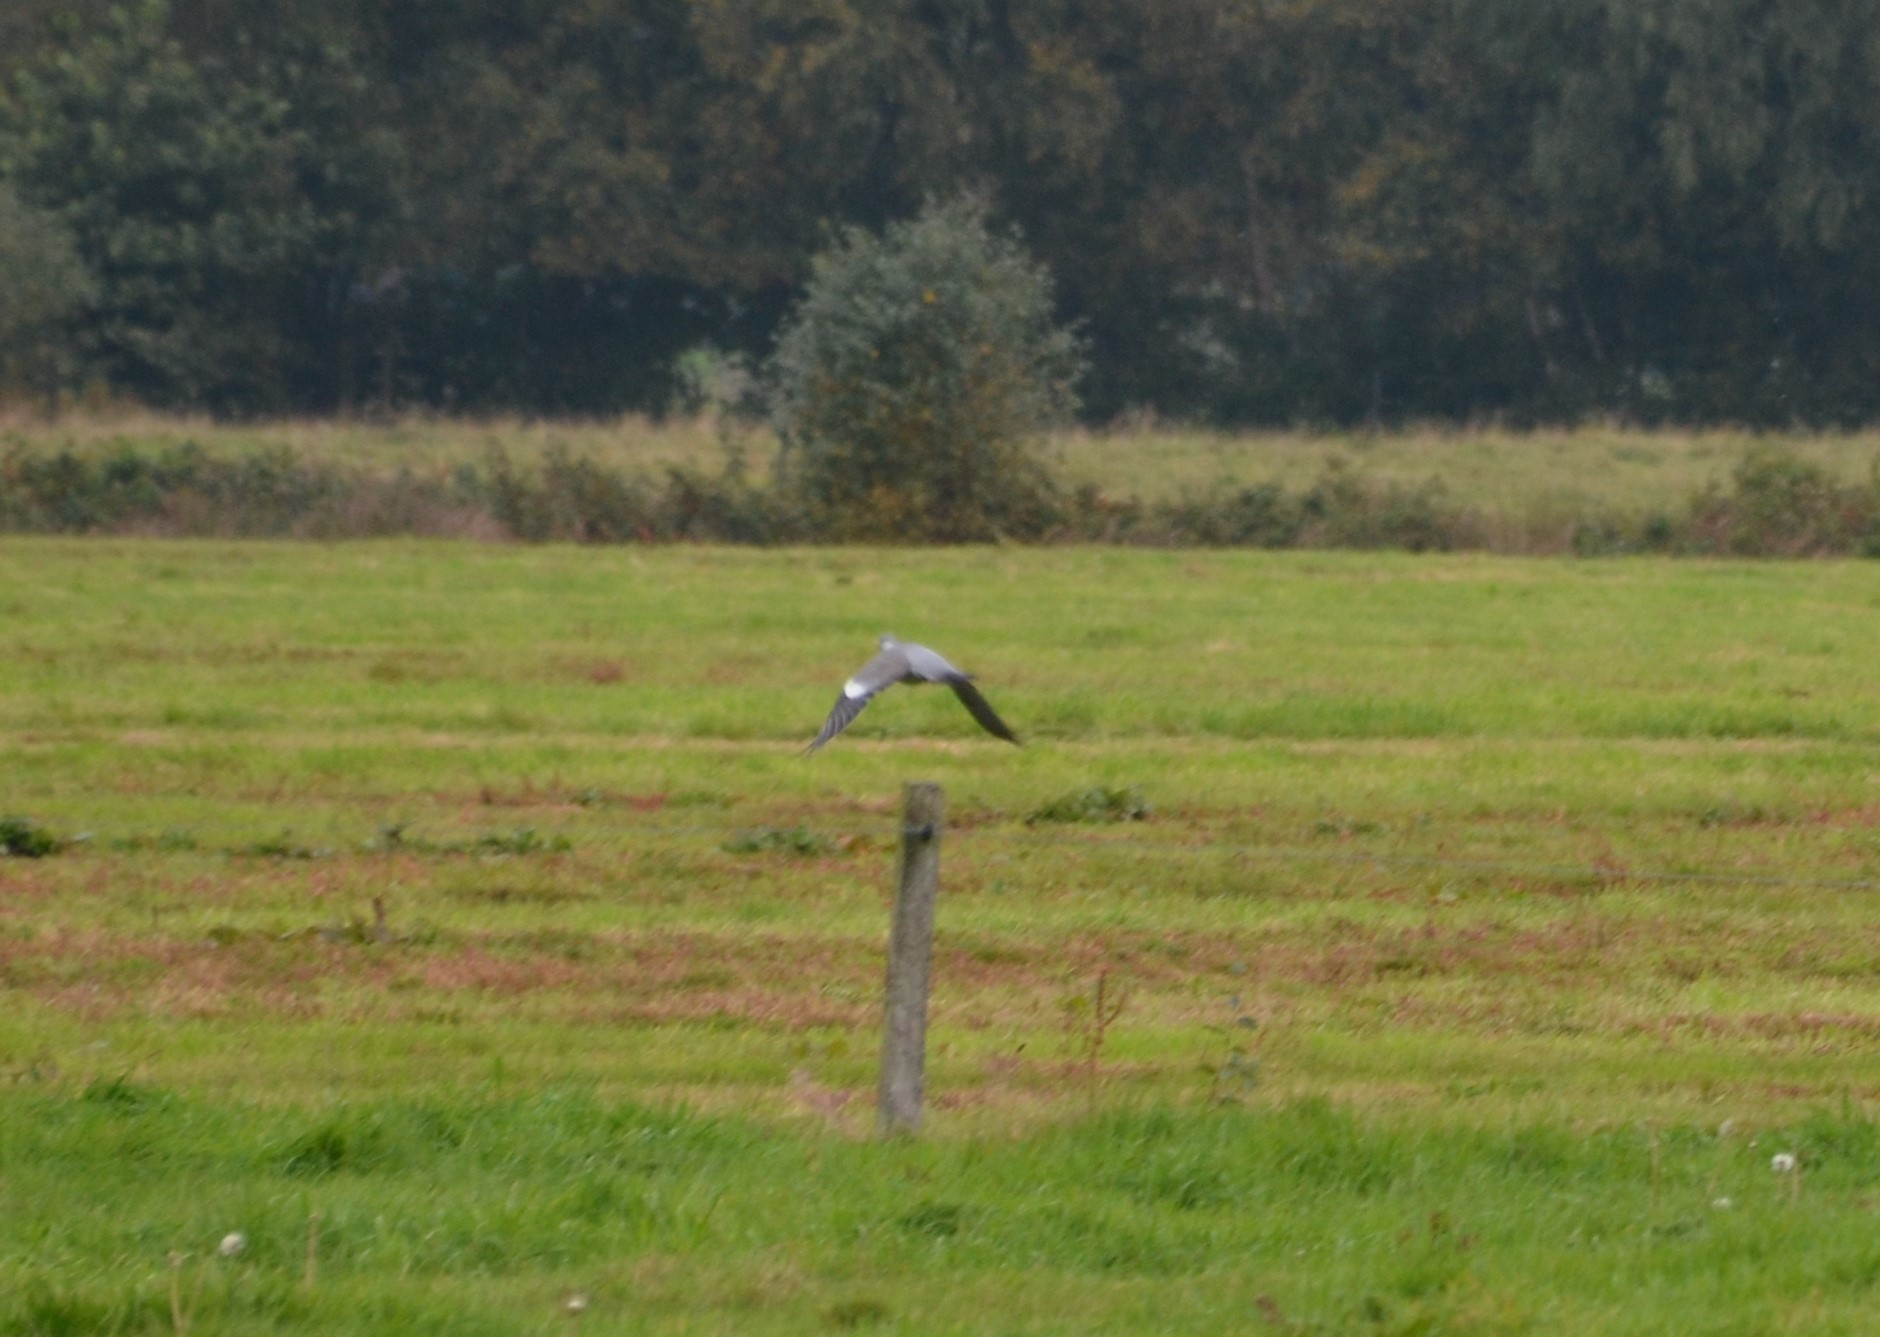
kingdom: Animalia
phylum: Chordata
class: Aves
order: Columbiformes
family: Columbidae
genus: Columba
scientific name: Columba palumbus
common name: Common wood pigeon
